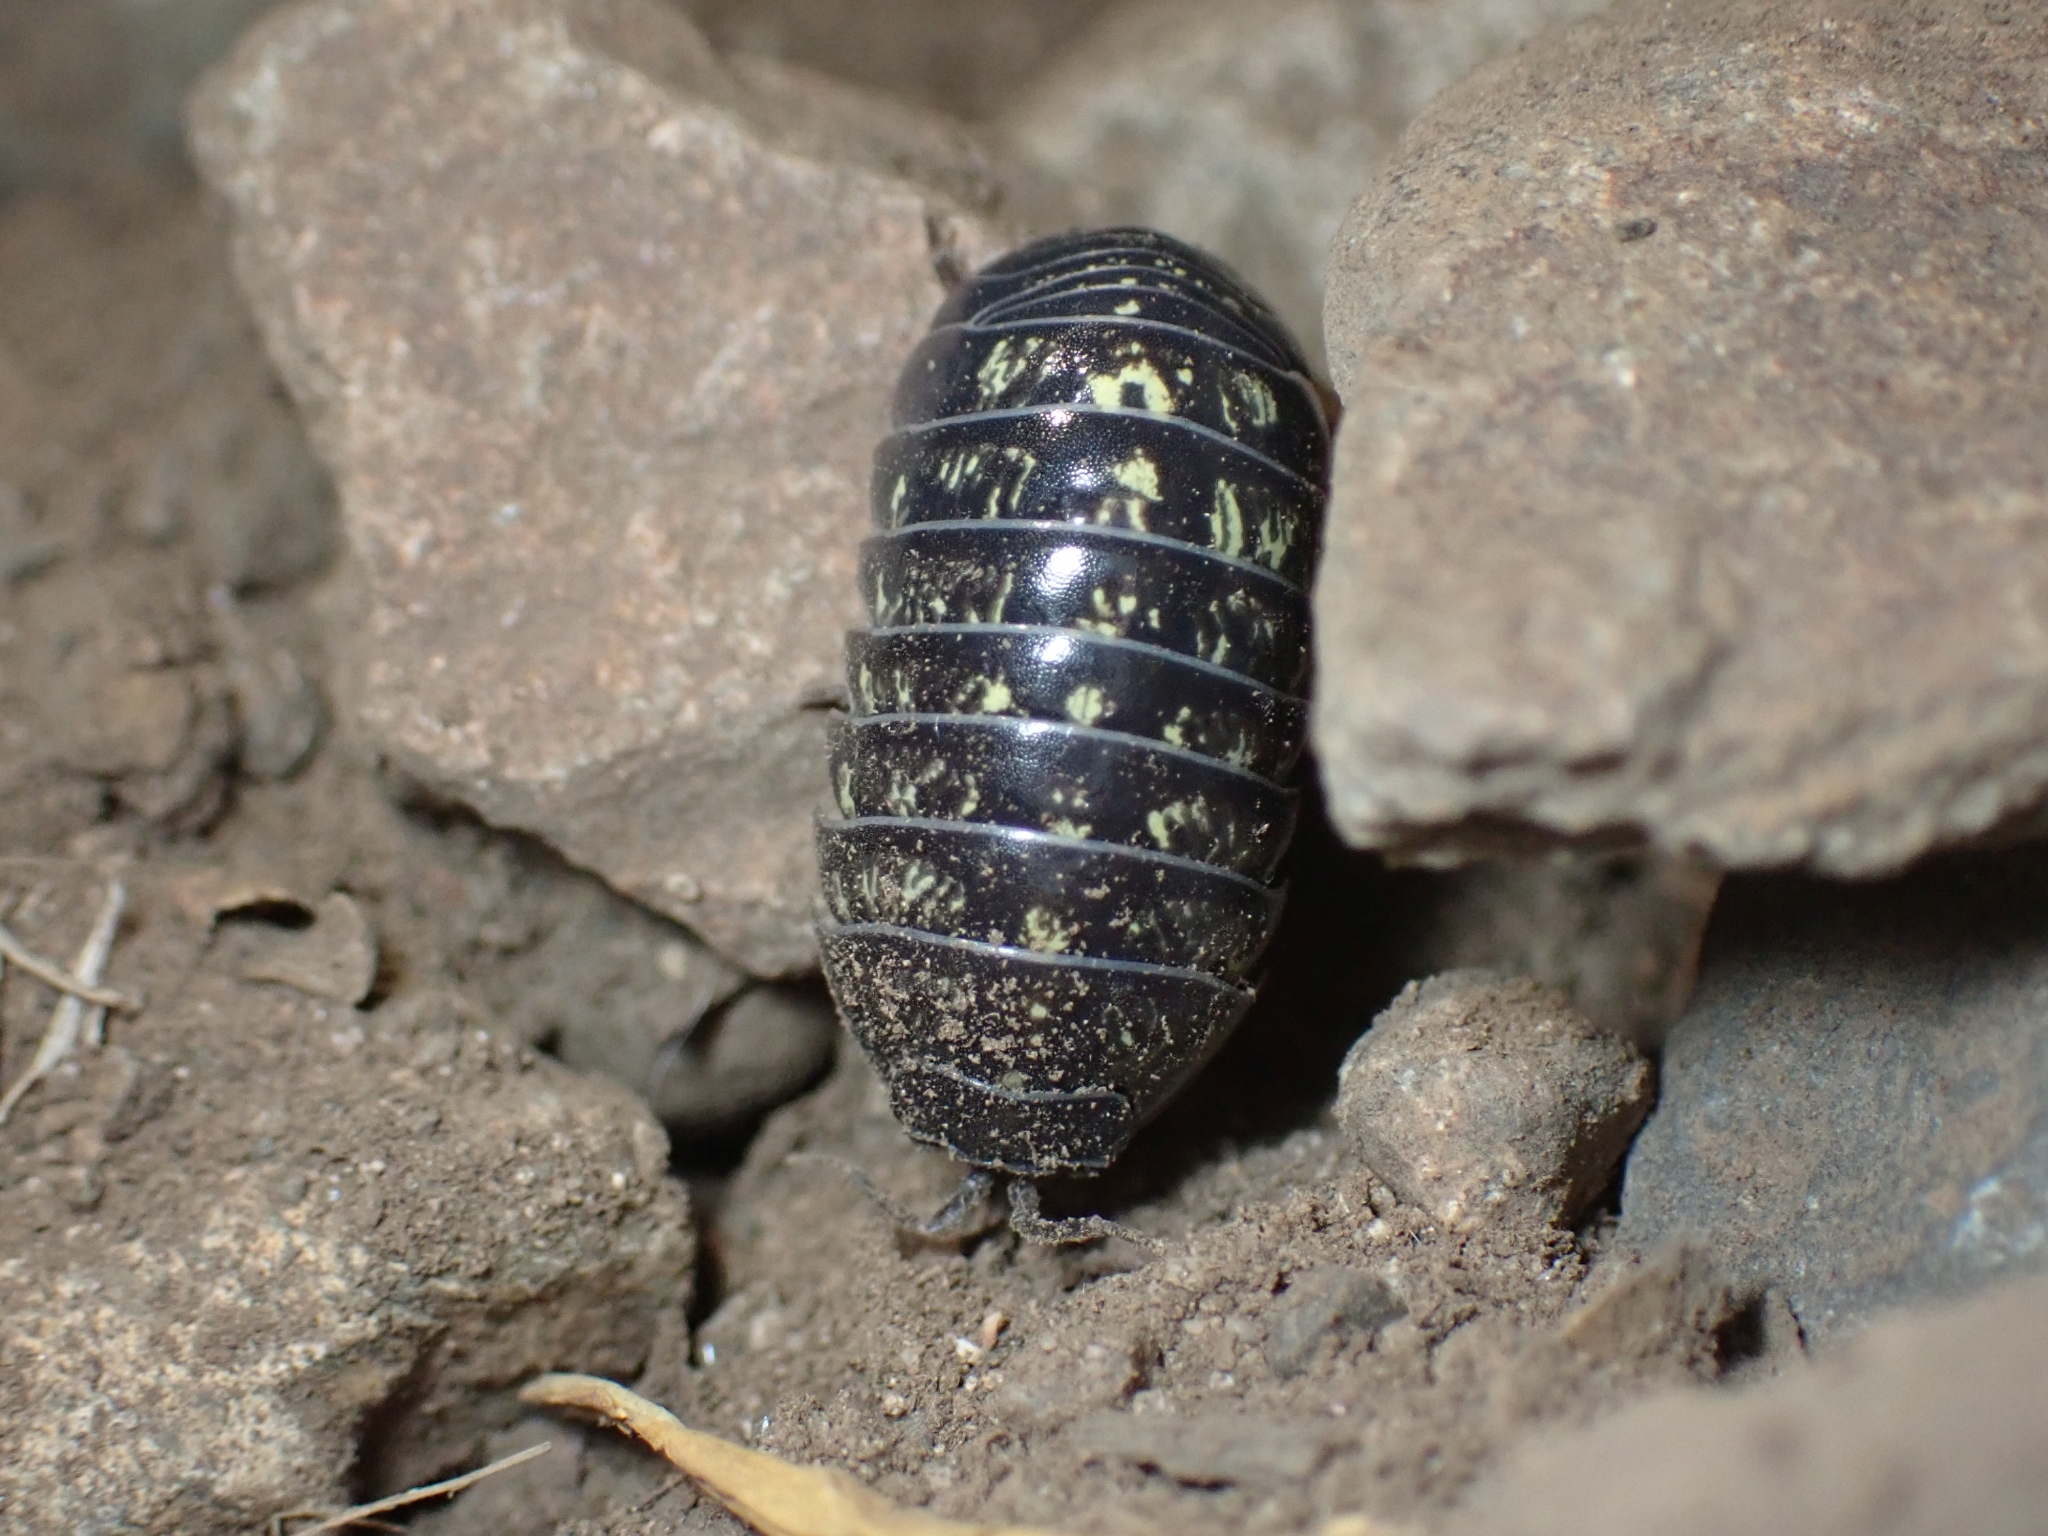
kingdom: Animalia
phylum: Arthropoda
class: Malacostraca
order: Isopoda
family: Armadillidiidae
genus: Armadillidium
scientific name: Armadillidium vulgare
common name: Common pill woodlouse
